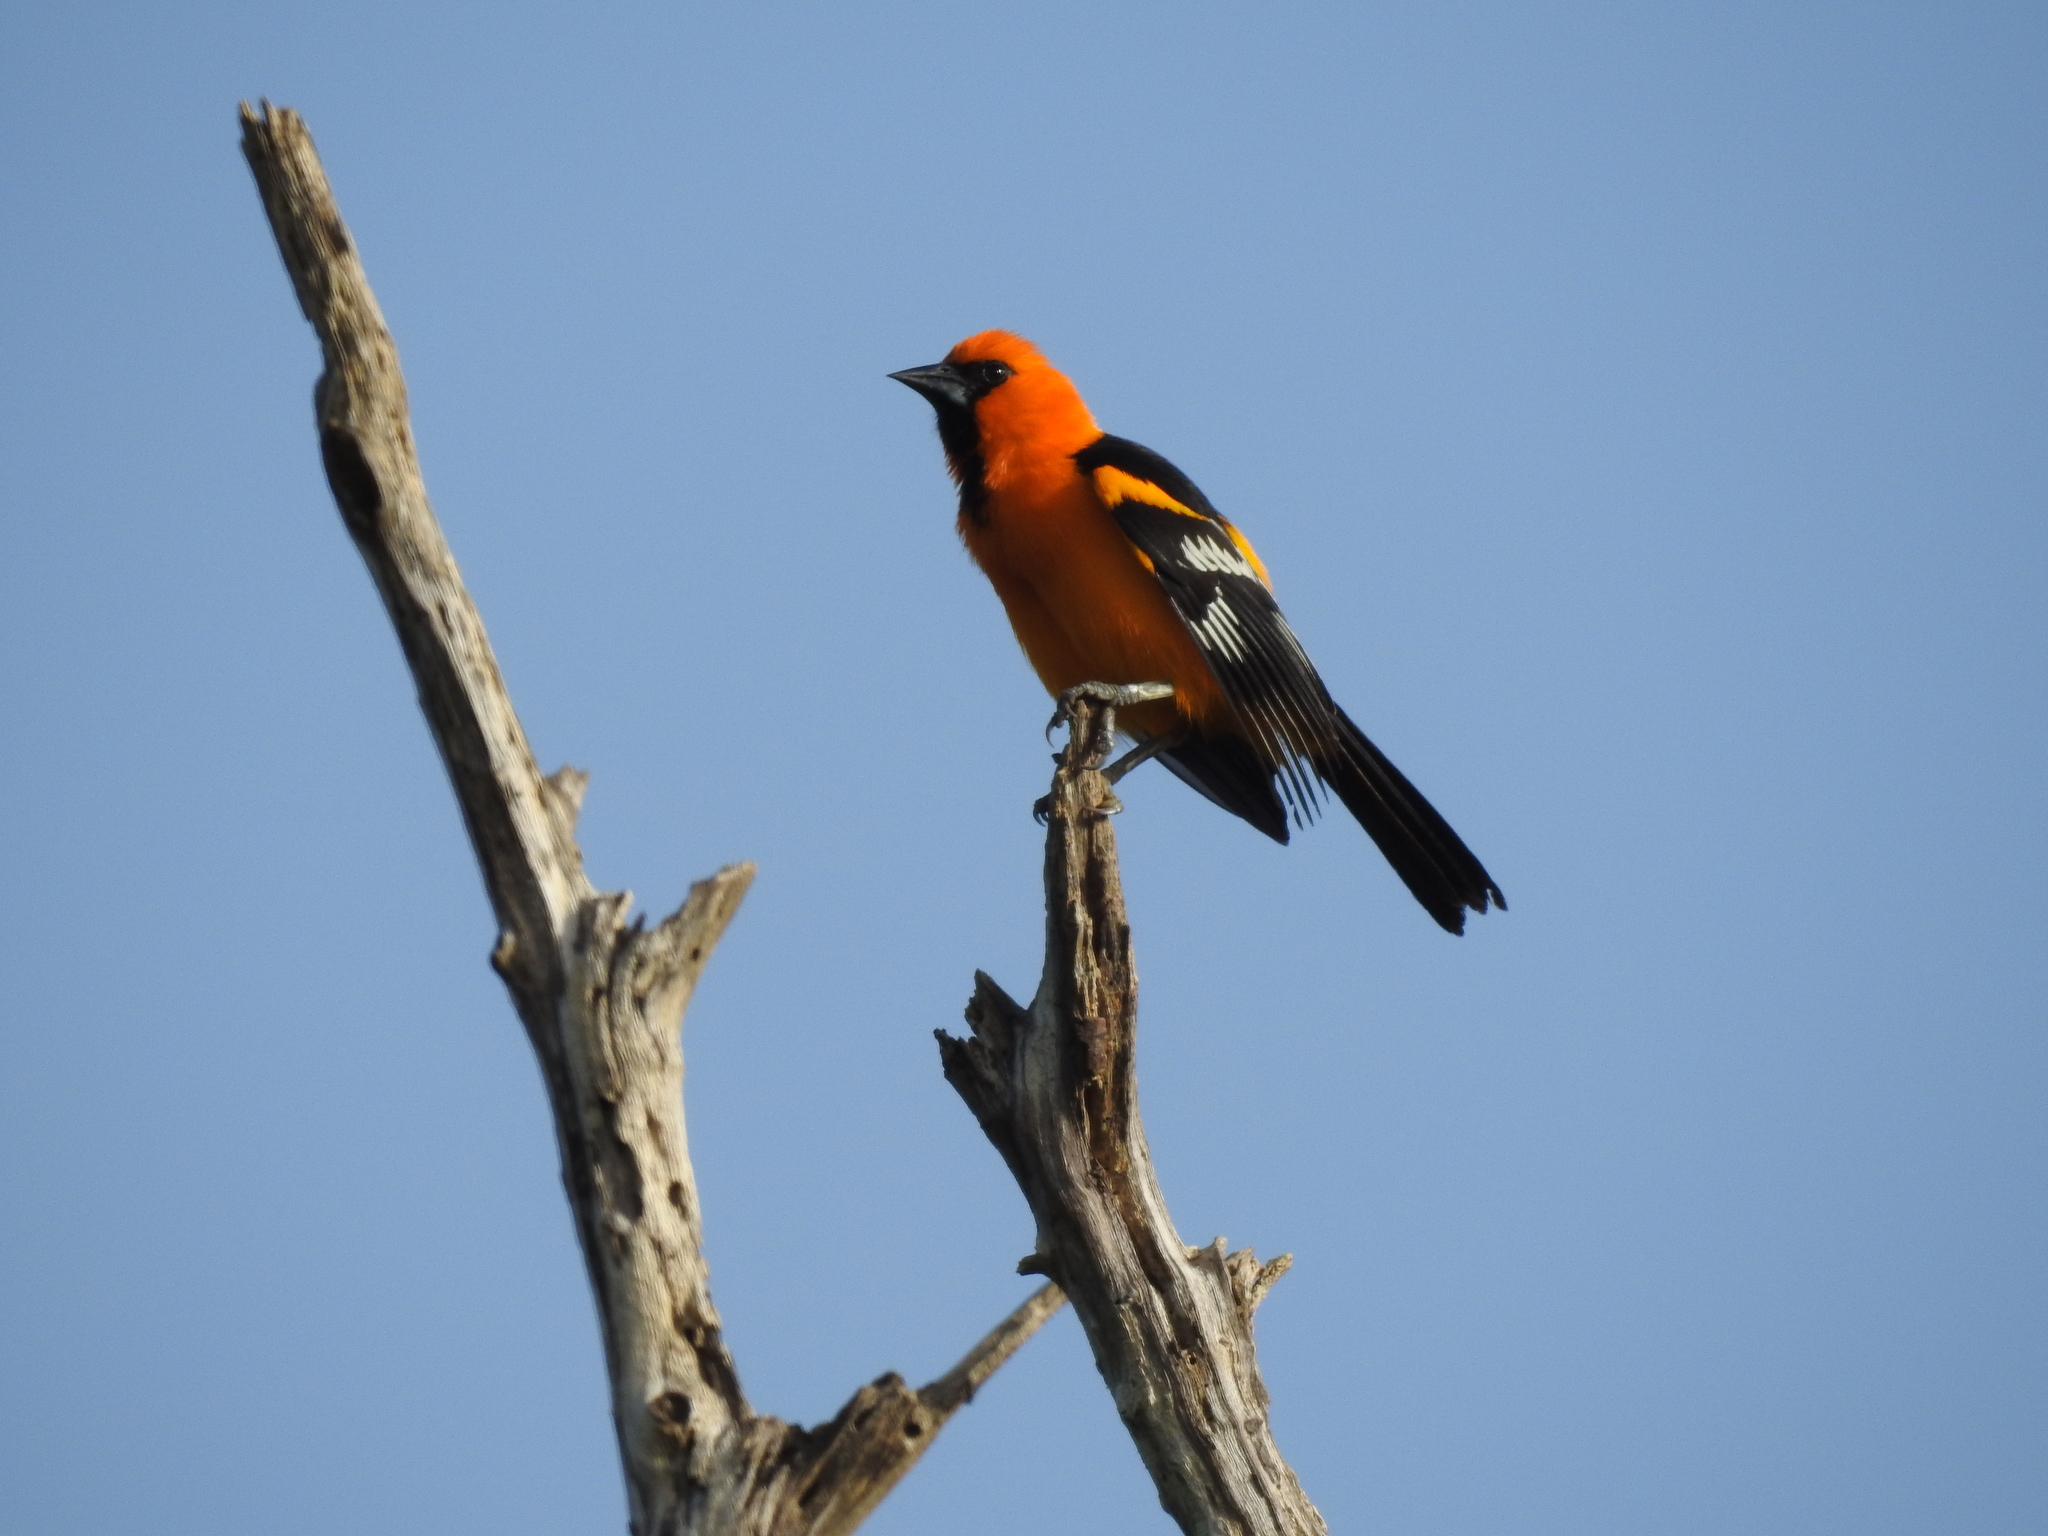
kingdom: Animalia
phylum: Chordata
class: Aves
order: Passeriformes
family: Icteridae
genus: Icterus
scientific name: Icterus gularis
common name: Altamira oriole
